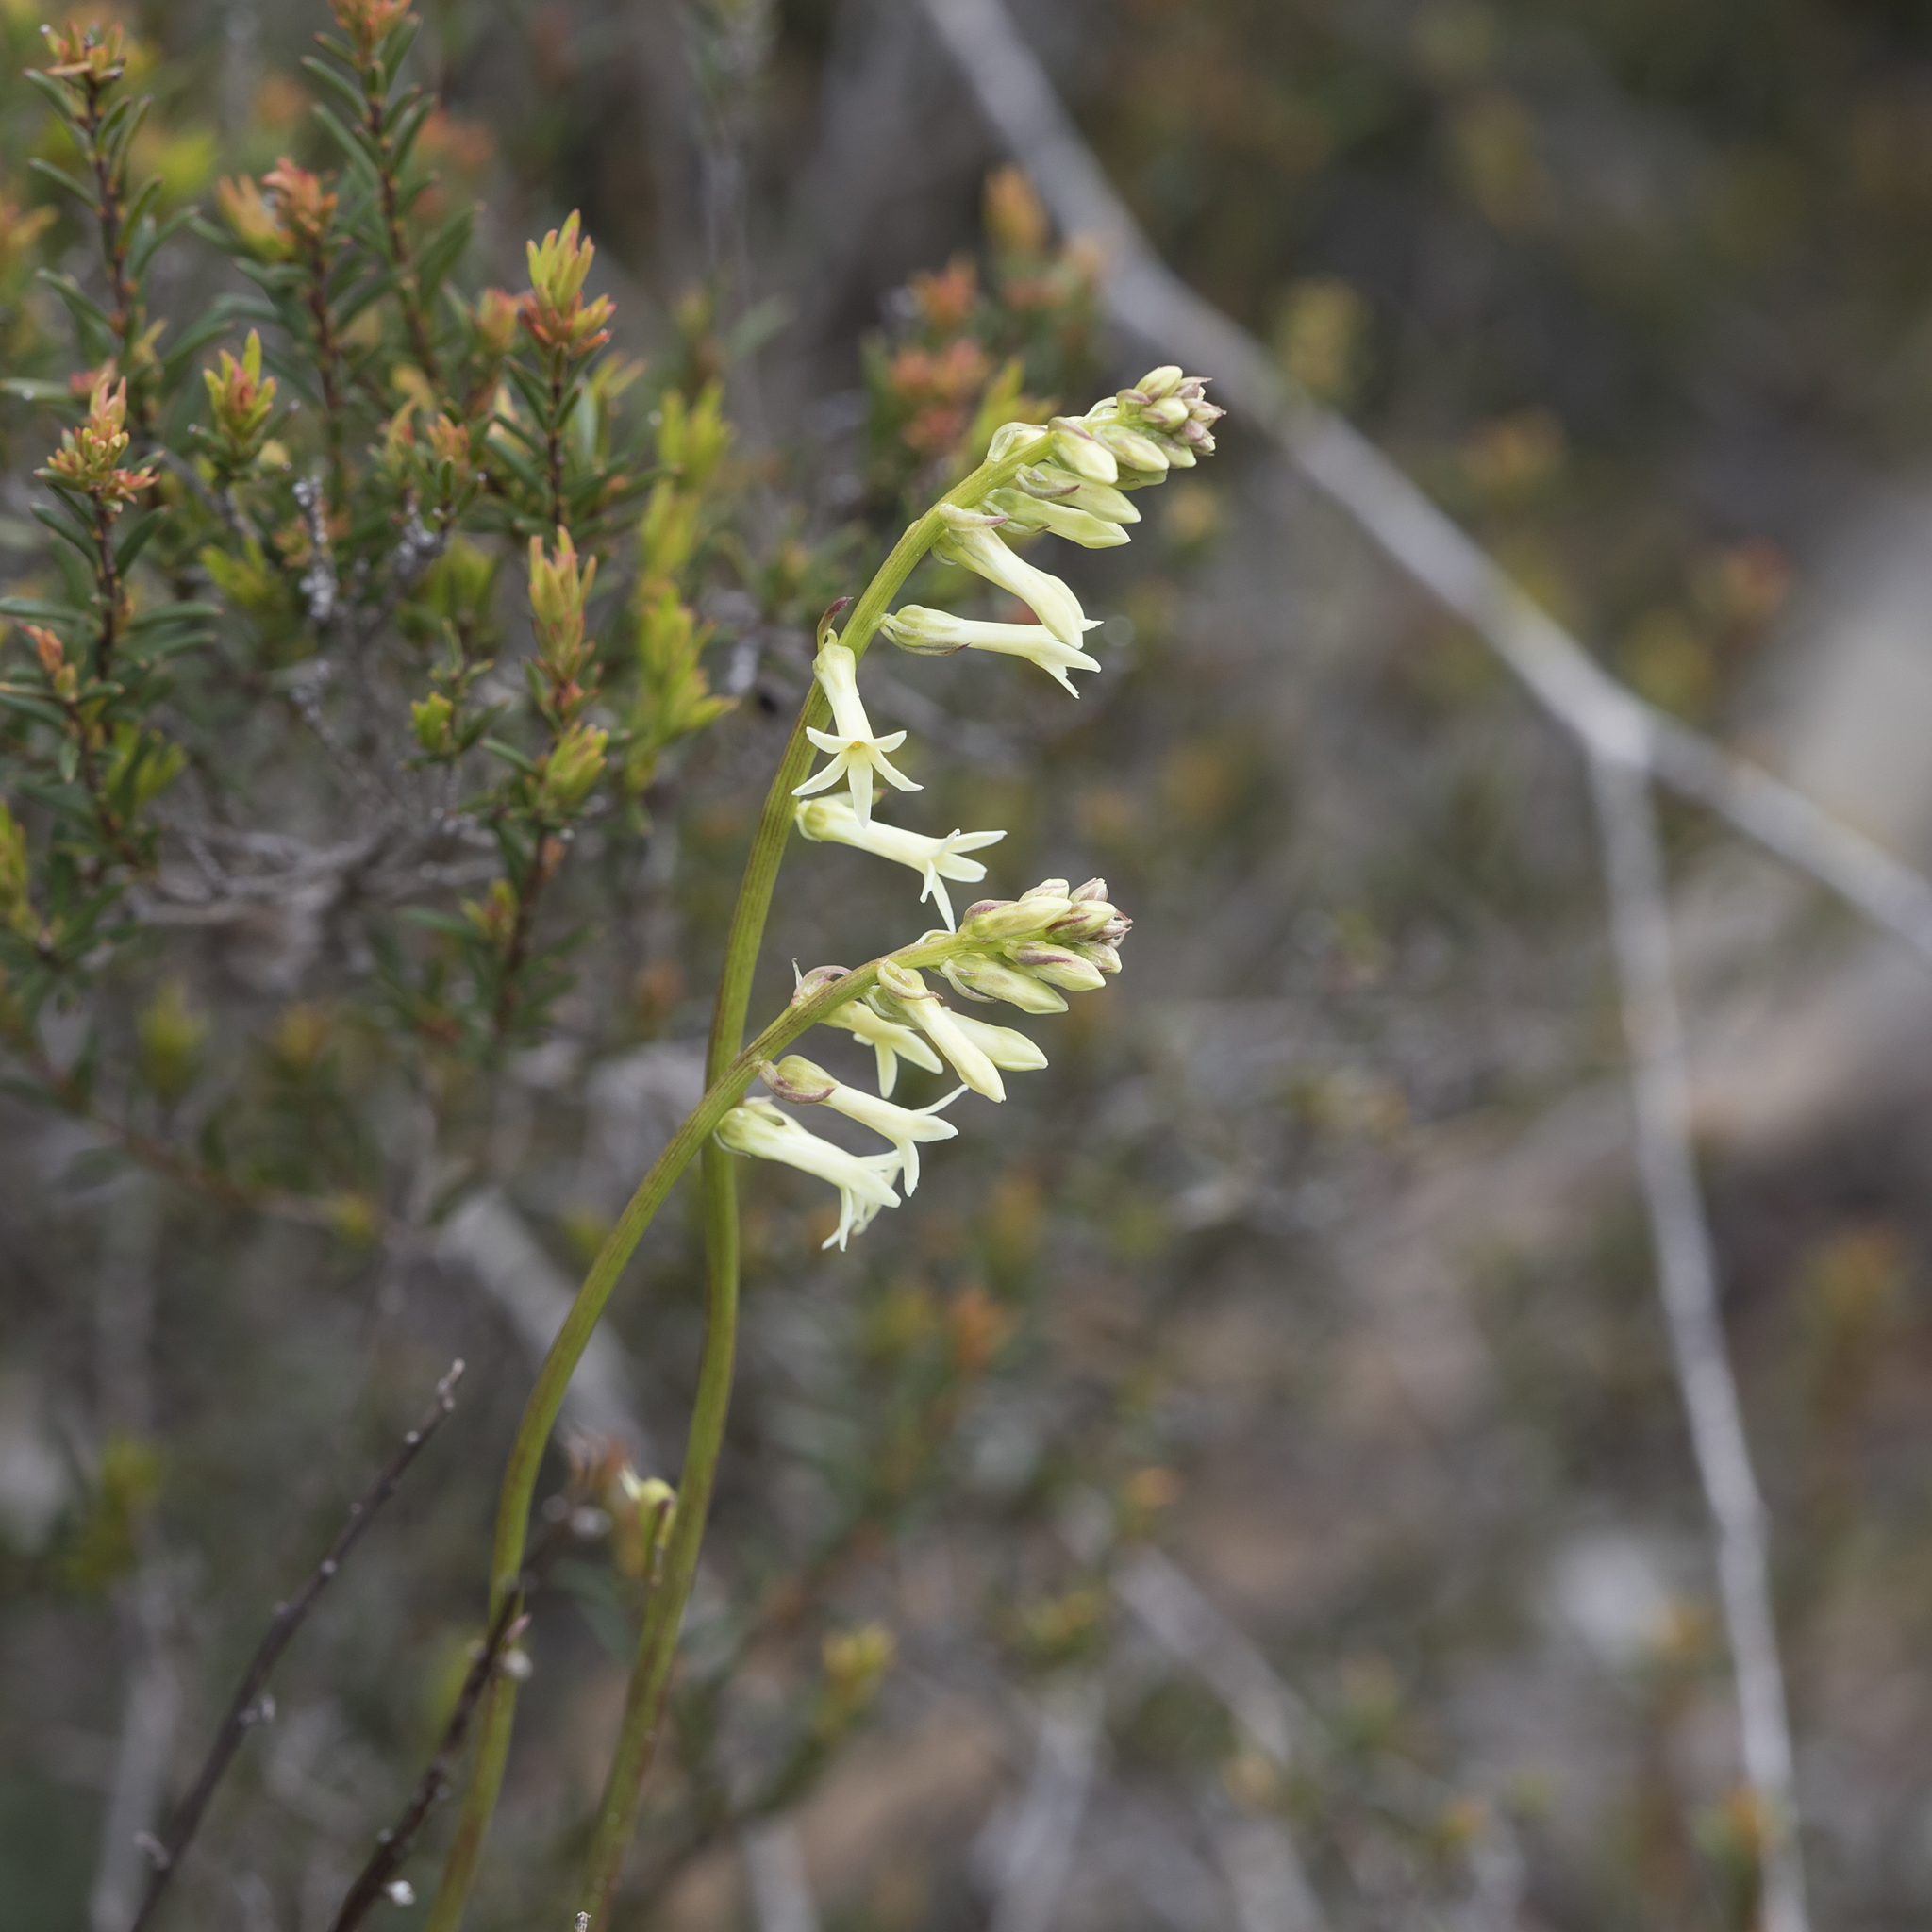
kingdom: Plantae
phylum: Tracheophyta
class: Magnoliopsida
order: Celastrales
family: Celastraceae
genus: Stackhousia
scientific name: Stackhousia monogyna
